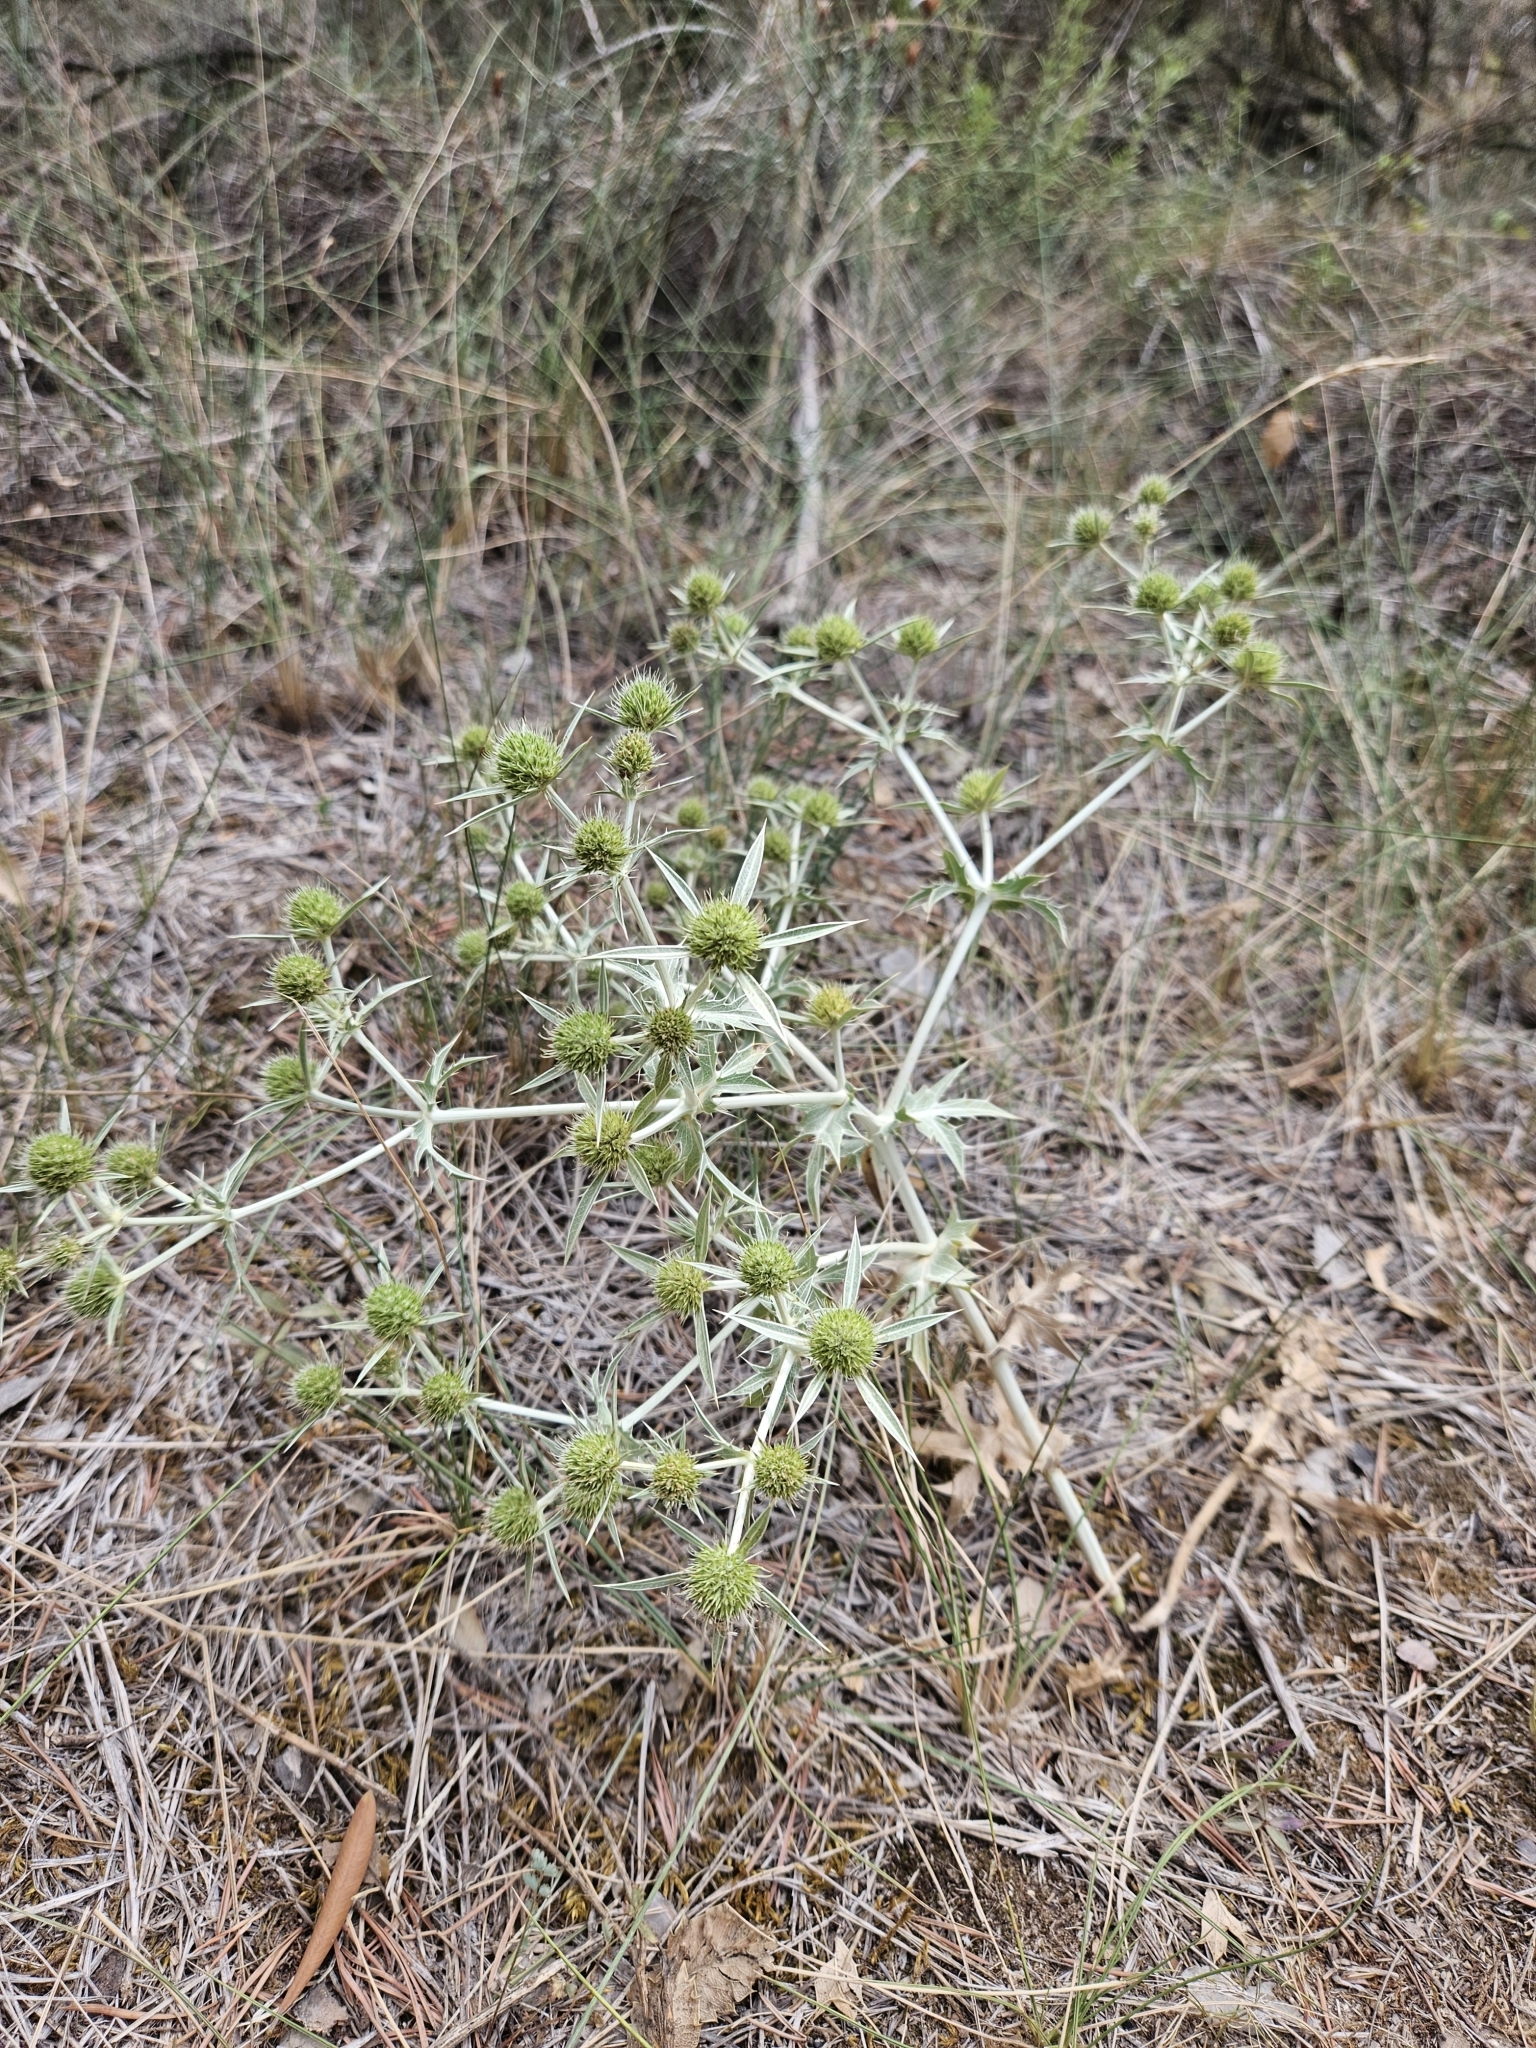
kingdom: Plantae
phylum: Tracheophyta
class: Magnoliopsida
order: Apiales
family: Apiaceae
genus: Eryngium
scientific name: Eryngium campestre
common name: Field eryngo
